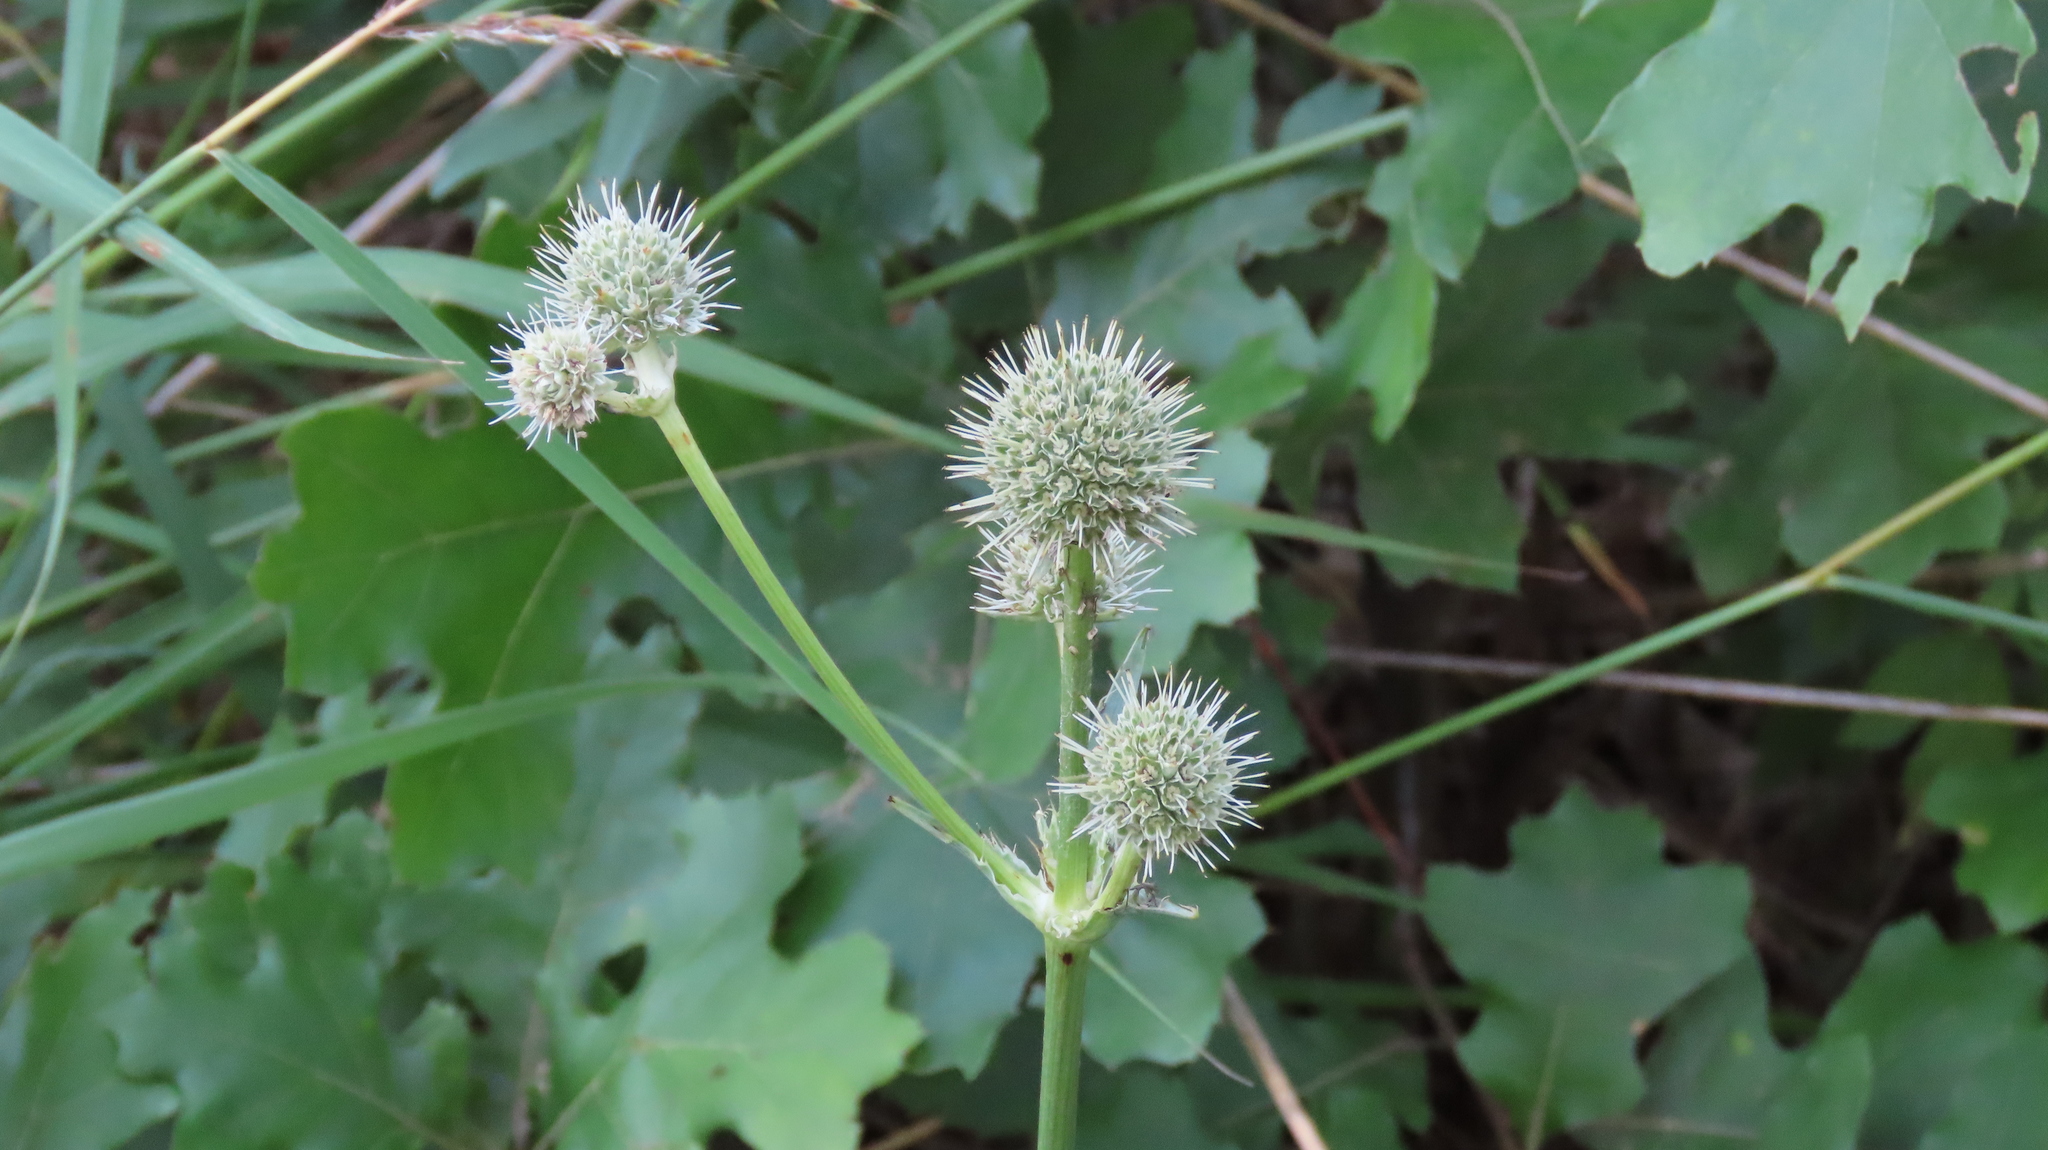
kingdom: Plantae
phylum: Tracheophyta
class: Magnoliopsida
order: Apiales
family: Apiaceae
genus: Eryngium
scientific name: Eryngium yuccifolium
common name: Button eryngo
